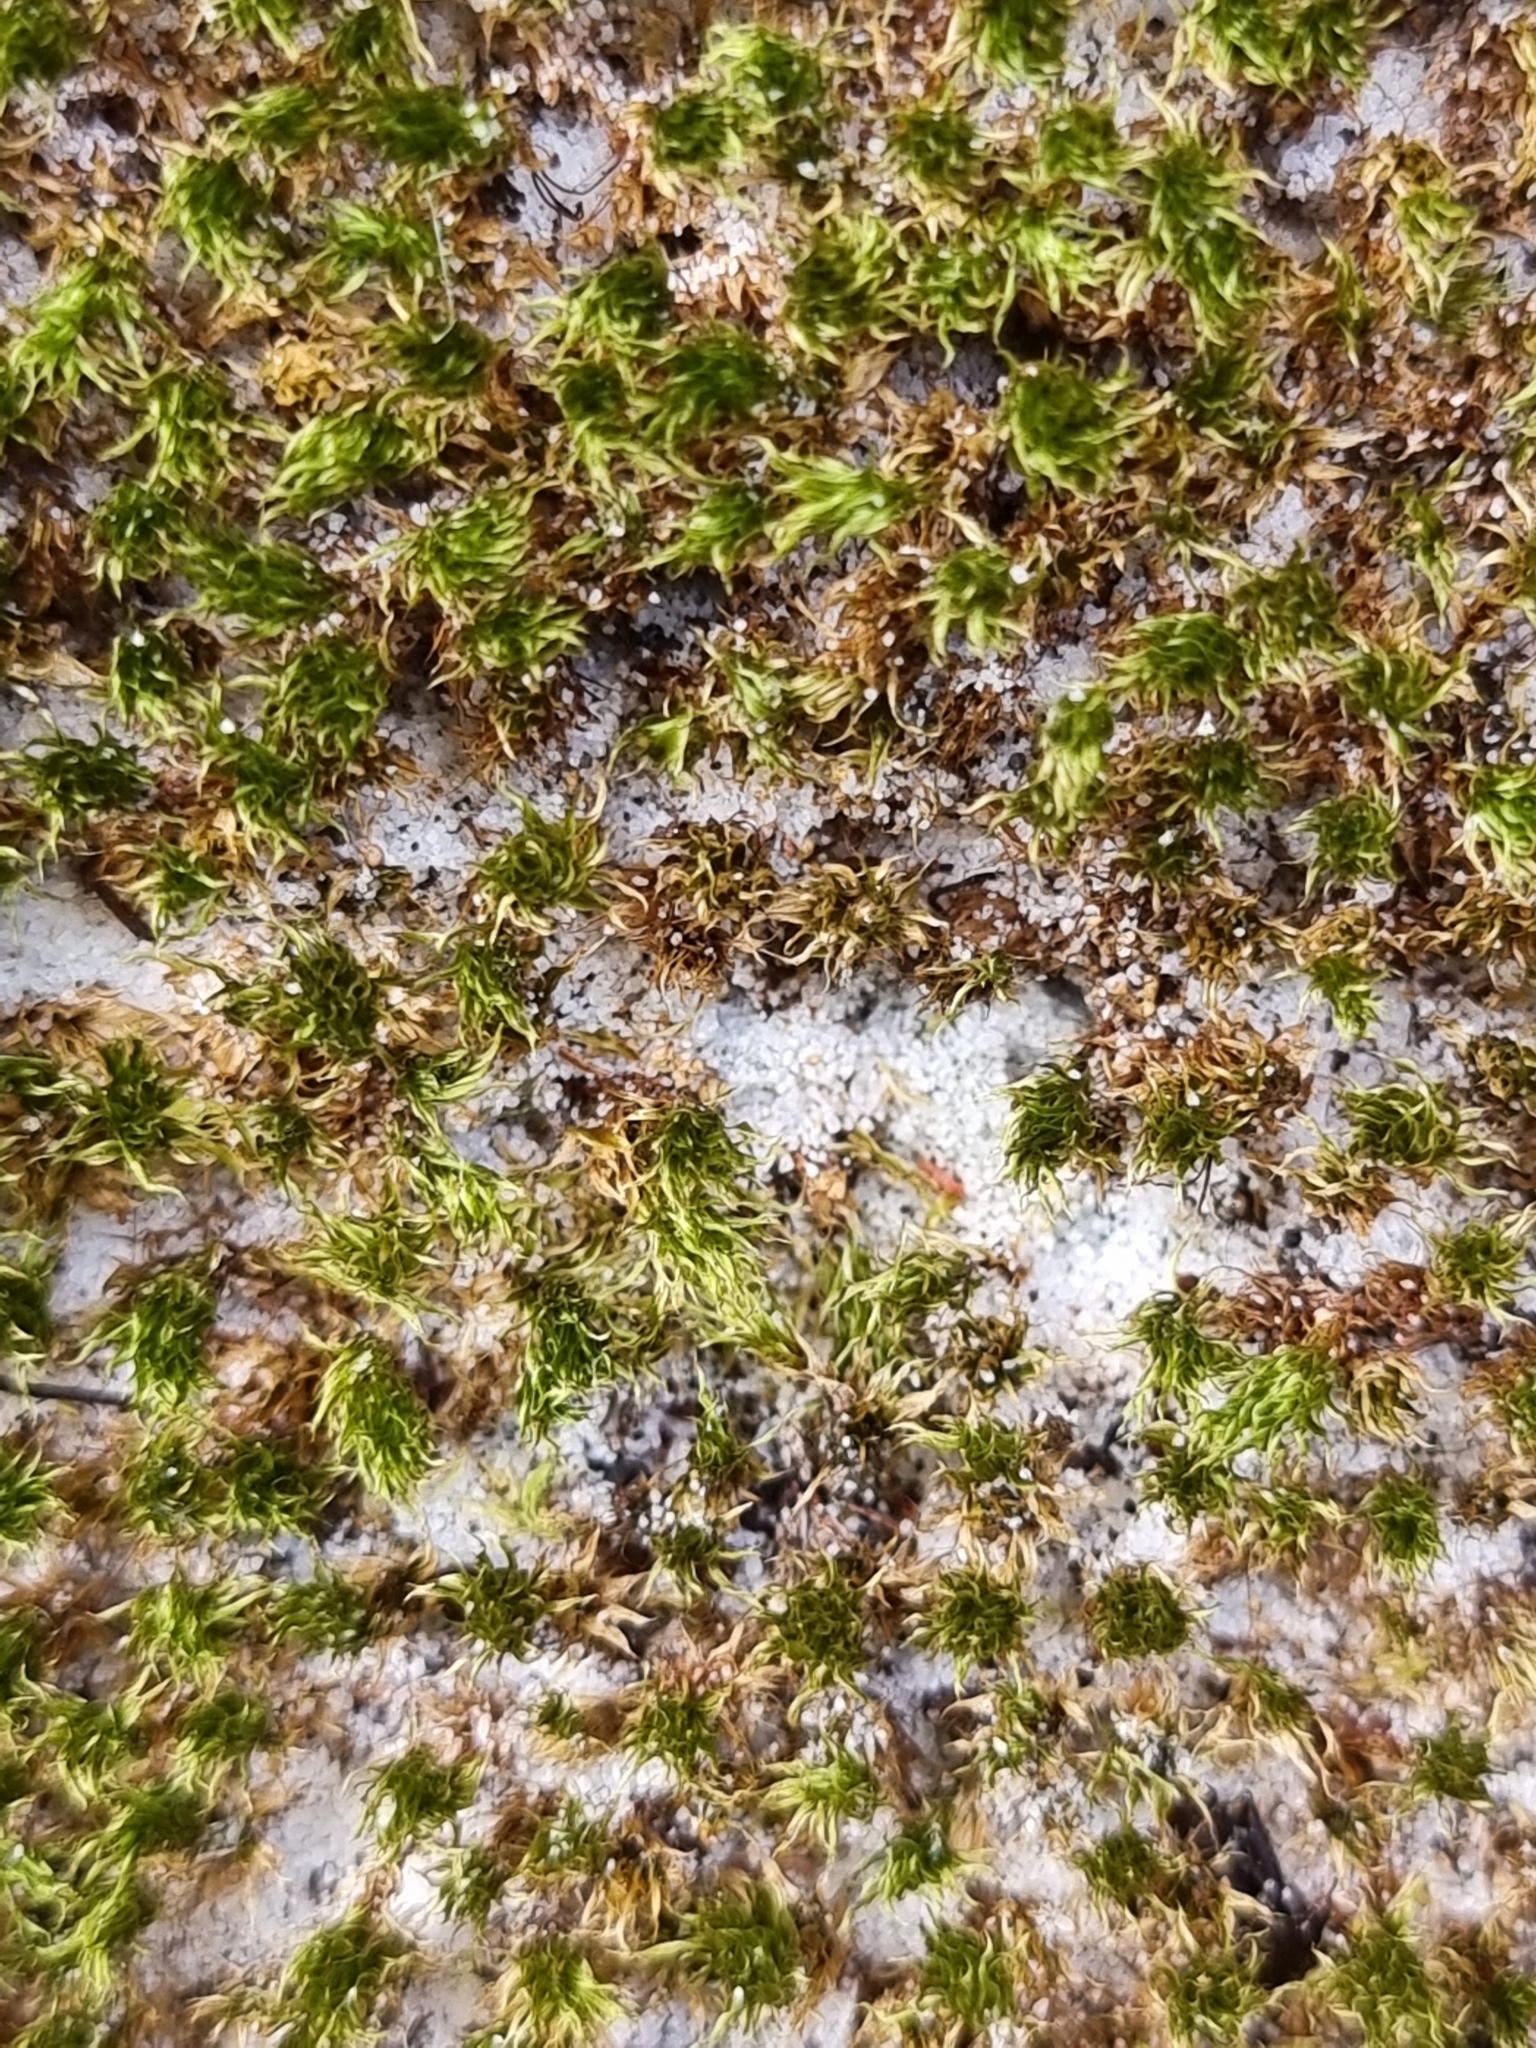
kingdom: Plantae
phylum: Bryophyta
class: Bryopsida
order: Bryales
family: Bryaceae
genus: Rosulabryum
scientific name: Rosulabryum aubertii
